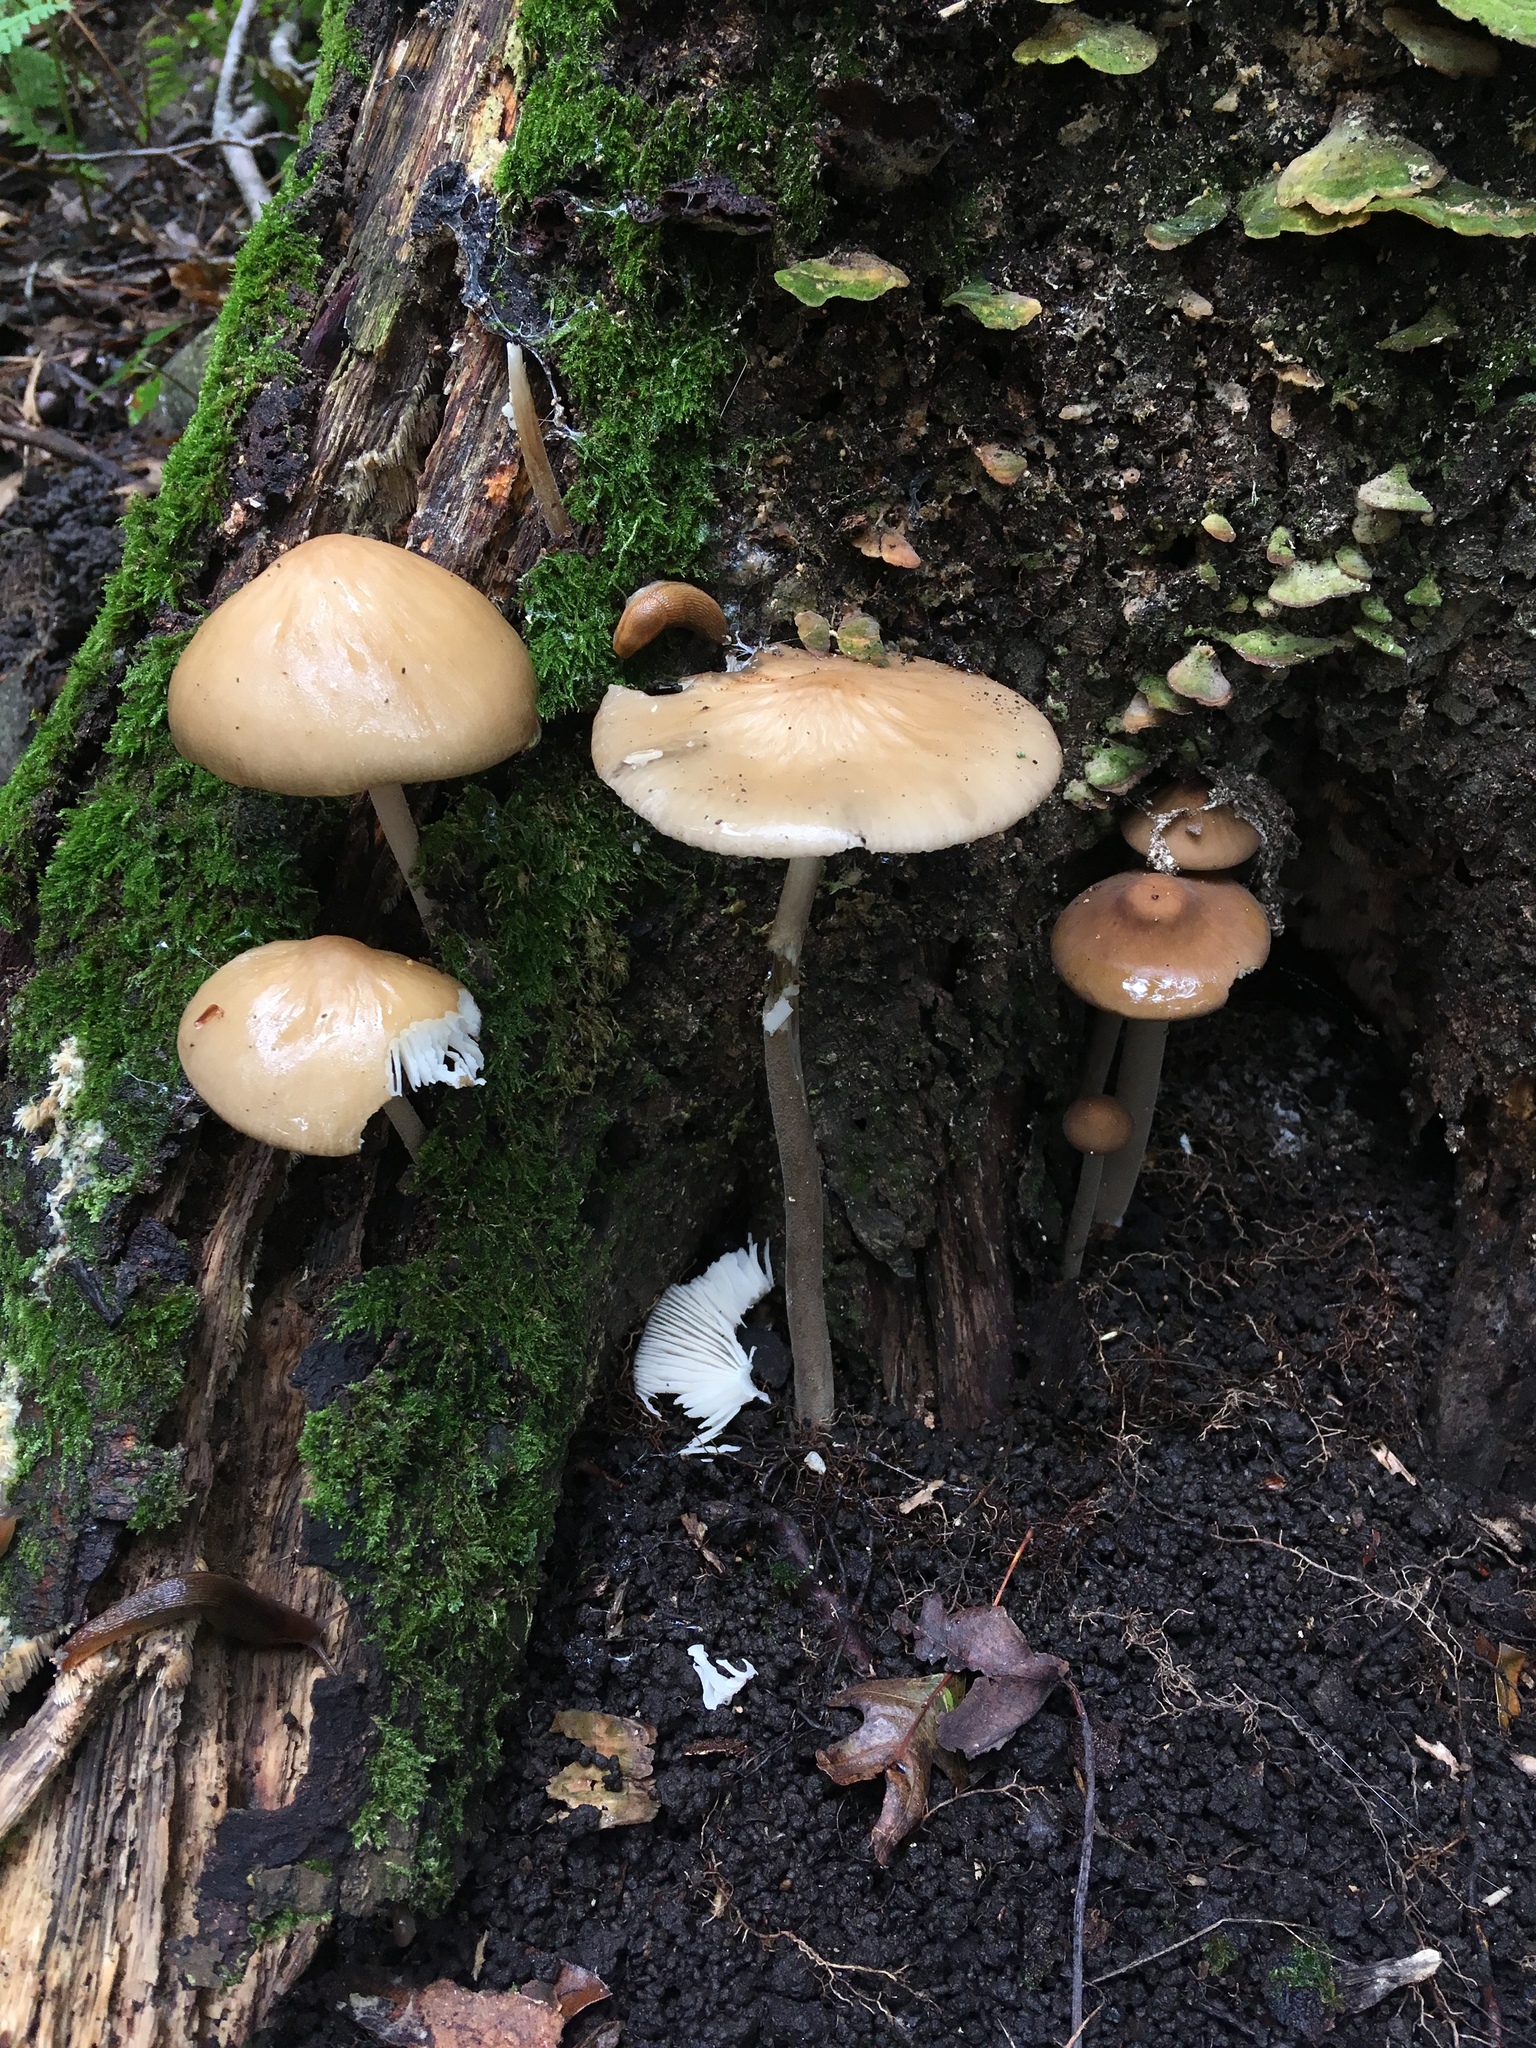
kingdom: Fungi
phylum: Basidiomycota
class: Agaricomycetes
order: Agaricales
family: Physalacriaceae
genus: Hymenopellis
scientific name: Hymenopellis furfuracea
